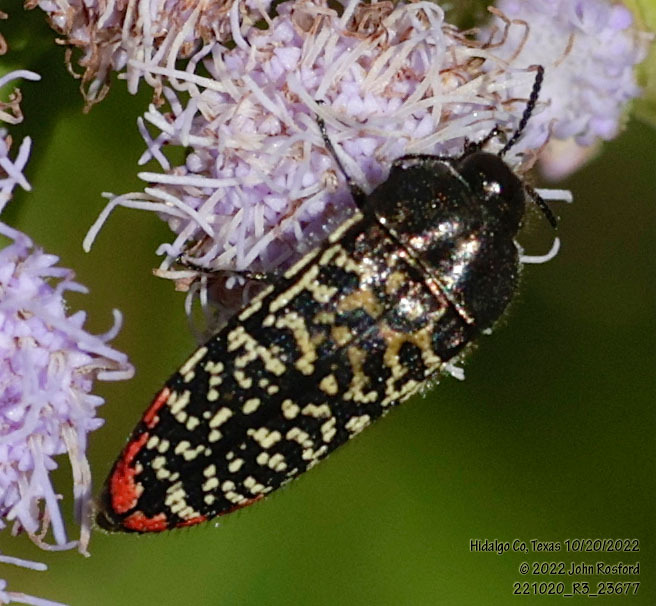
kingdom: Animalia
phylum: Arthropoda
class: Insecta
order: Coleoptera
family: Buprestidae
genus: Acmaeodera
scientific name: Acmaeodera haemorrhoa
